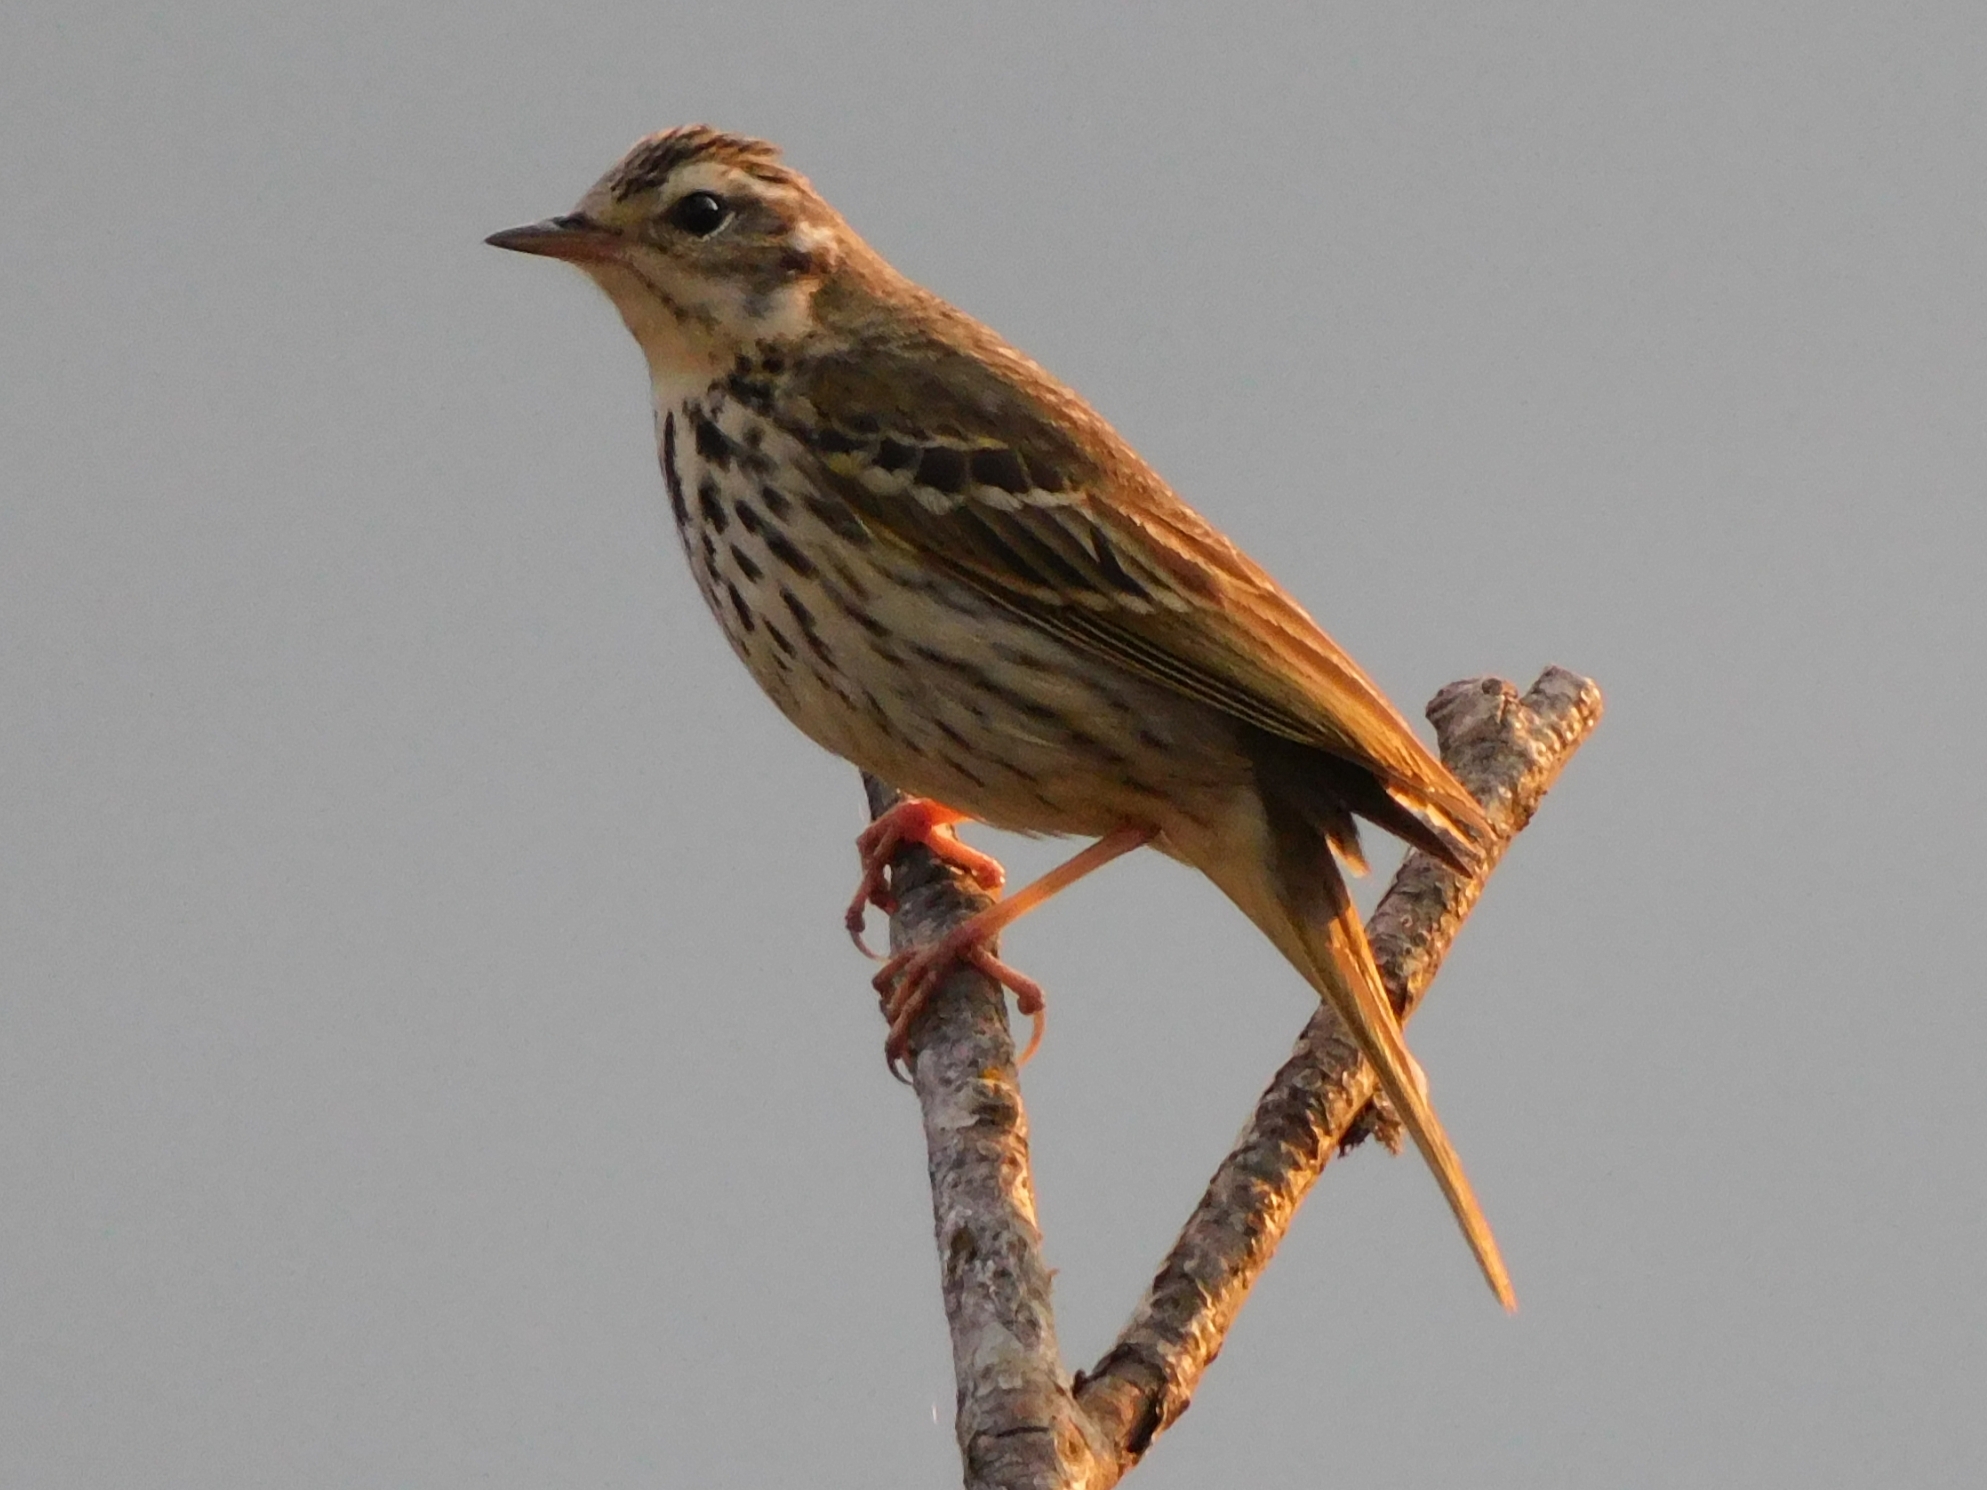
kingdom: Animalia
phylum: Chordata
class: Aves
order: Passeriformes
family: Motacillidae
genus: Anthus
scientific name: Anthus hodgsoni
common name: Olive-backed pipit
